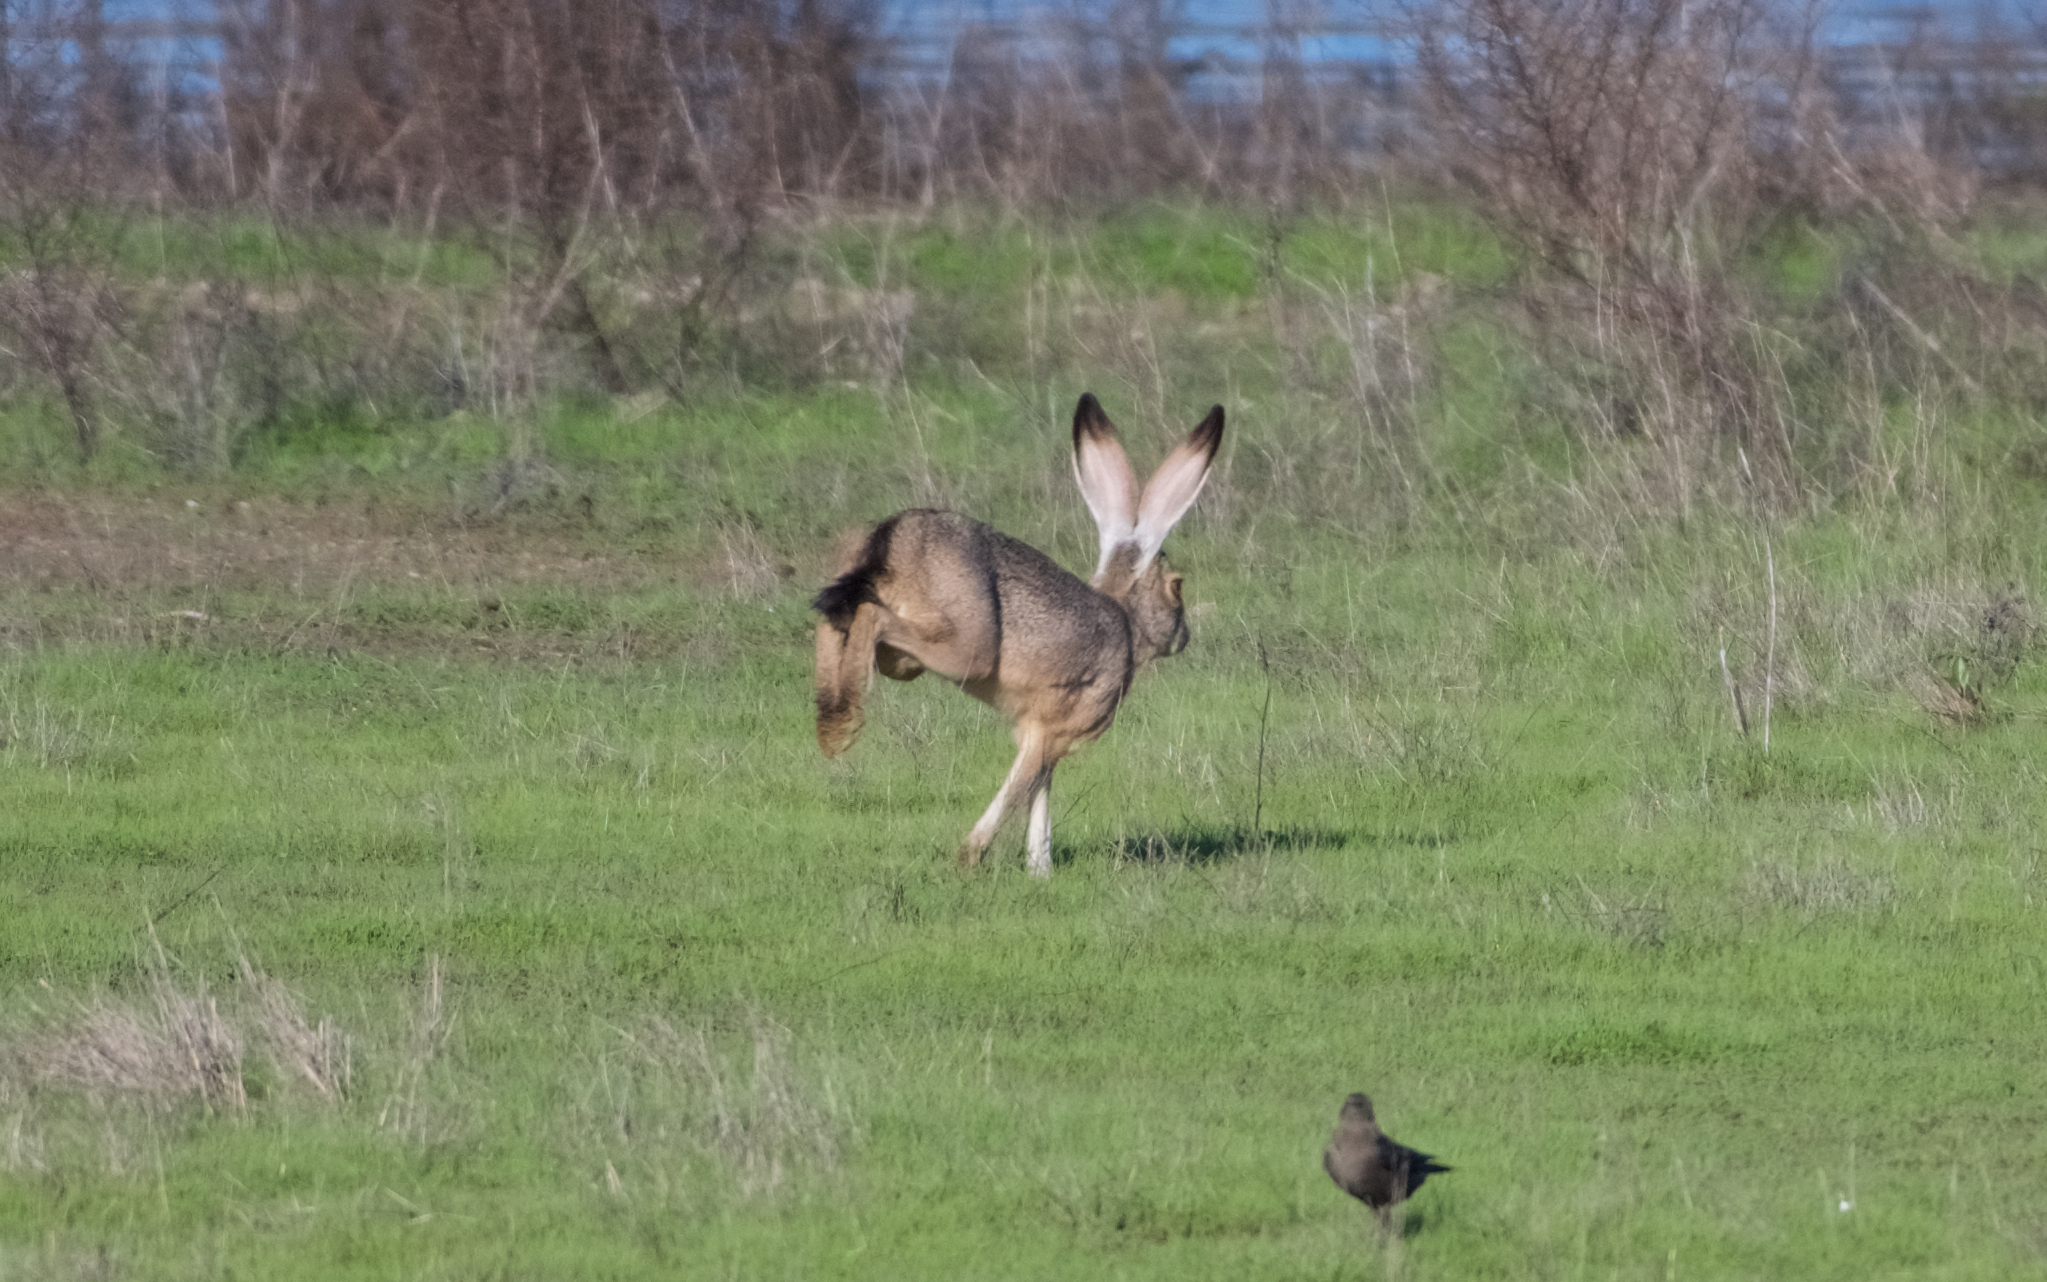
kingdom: Animalia
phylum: Chordata
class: Mammalia
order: Lagomorpha
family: Leporidae
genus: Lepus
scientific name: Lepus californicus
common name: Black-tailed jackrabbit
